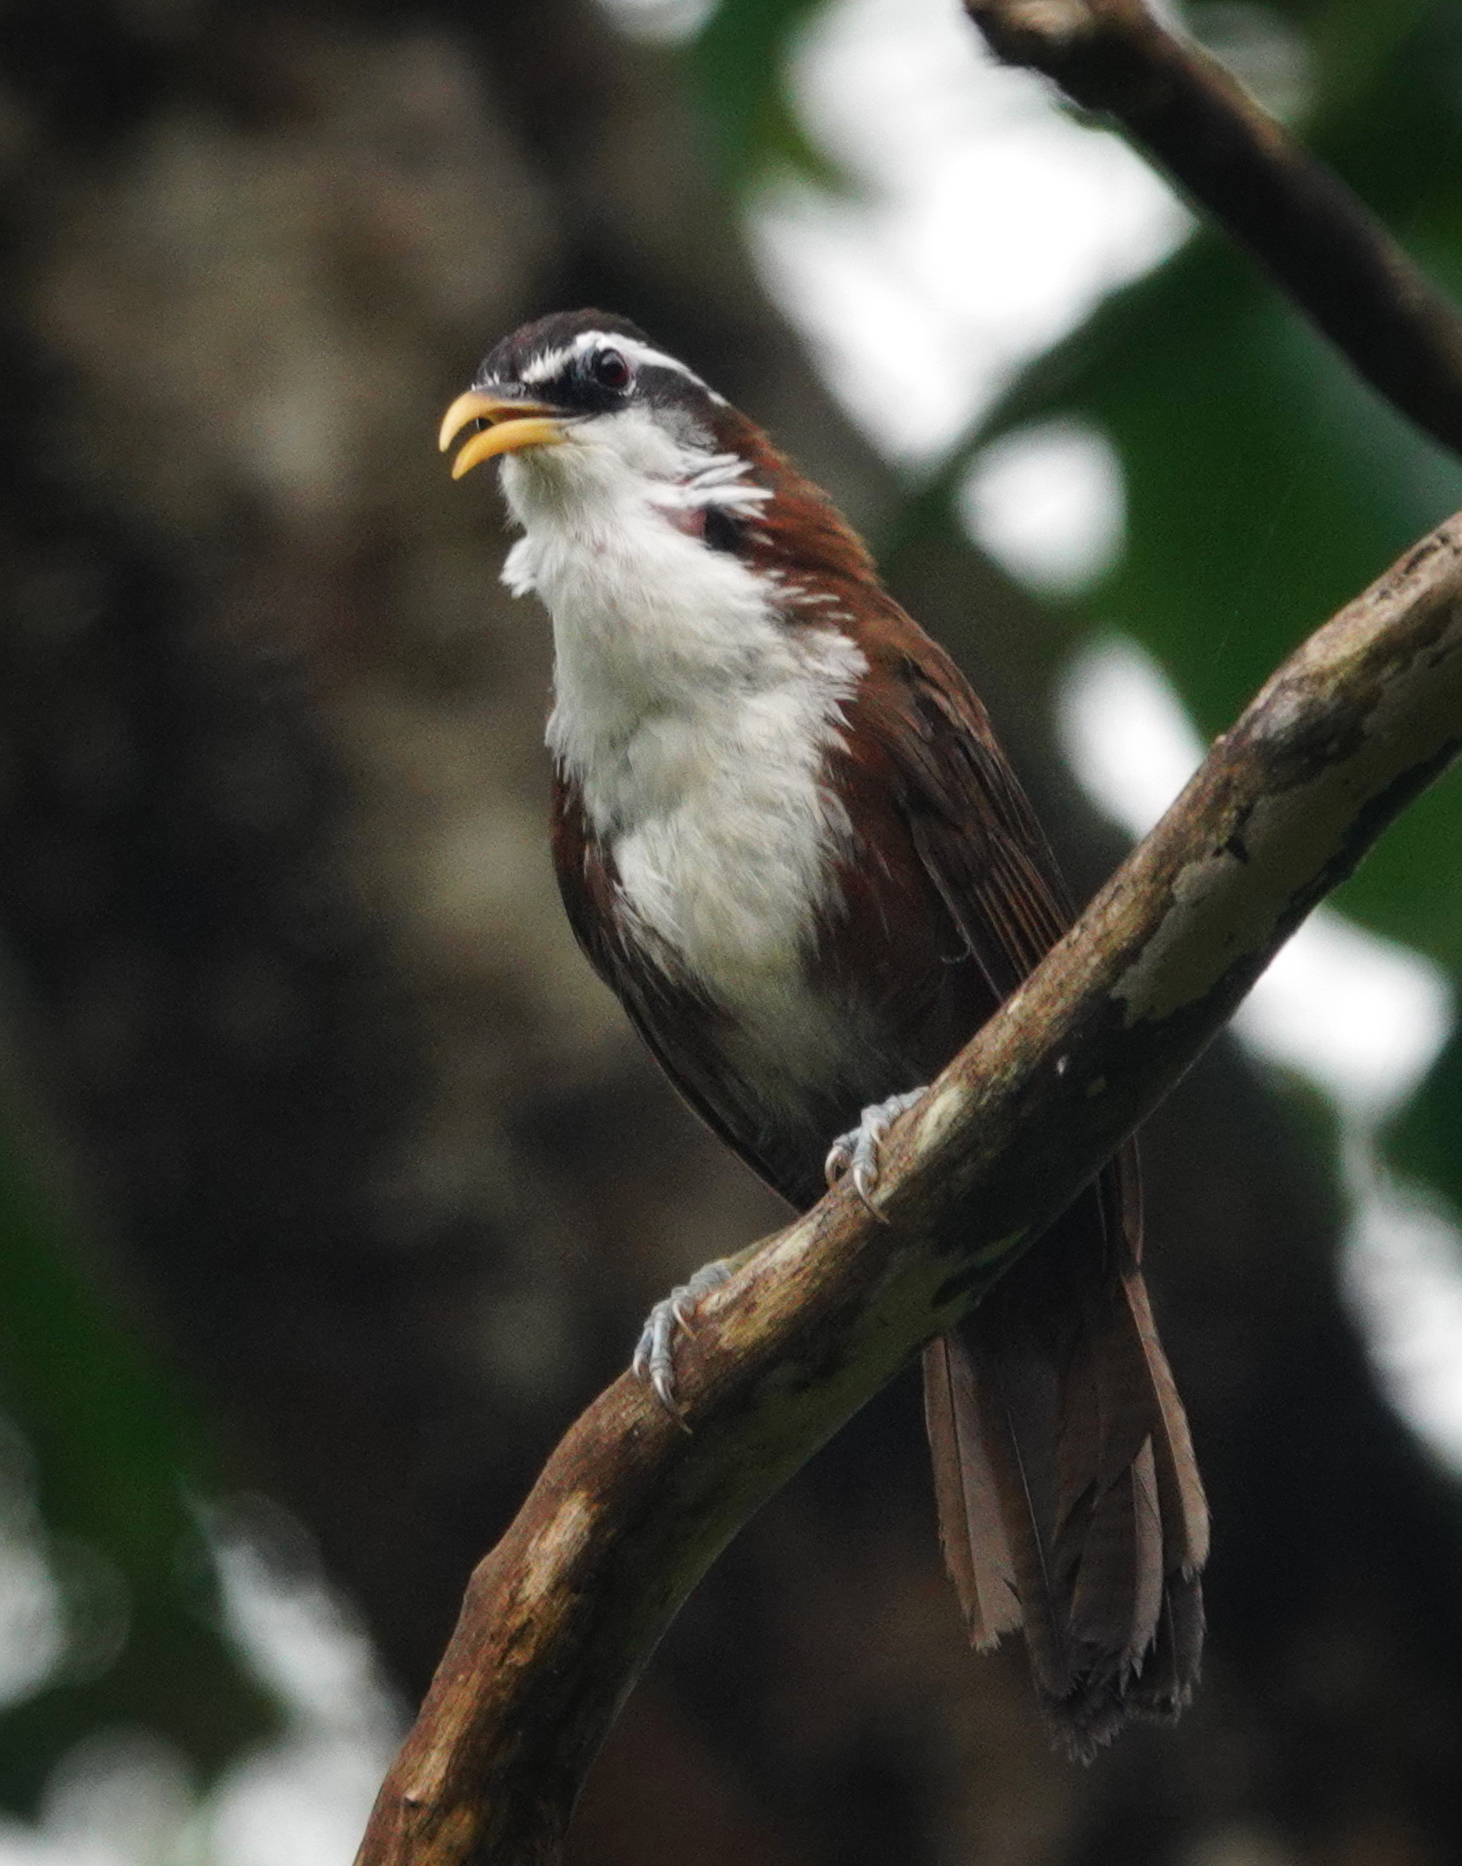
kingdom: Animalia
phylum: Chordata
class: Aves
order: Passeriformes
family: Timaliidae
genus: Pomatorhinus
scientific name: Pomatorhinus melanurus
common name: Sri lanka scimitar-babbler
